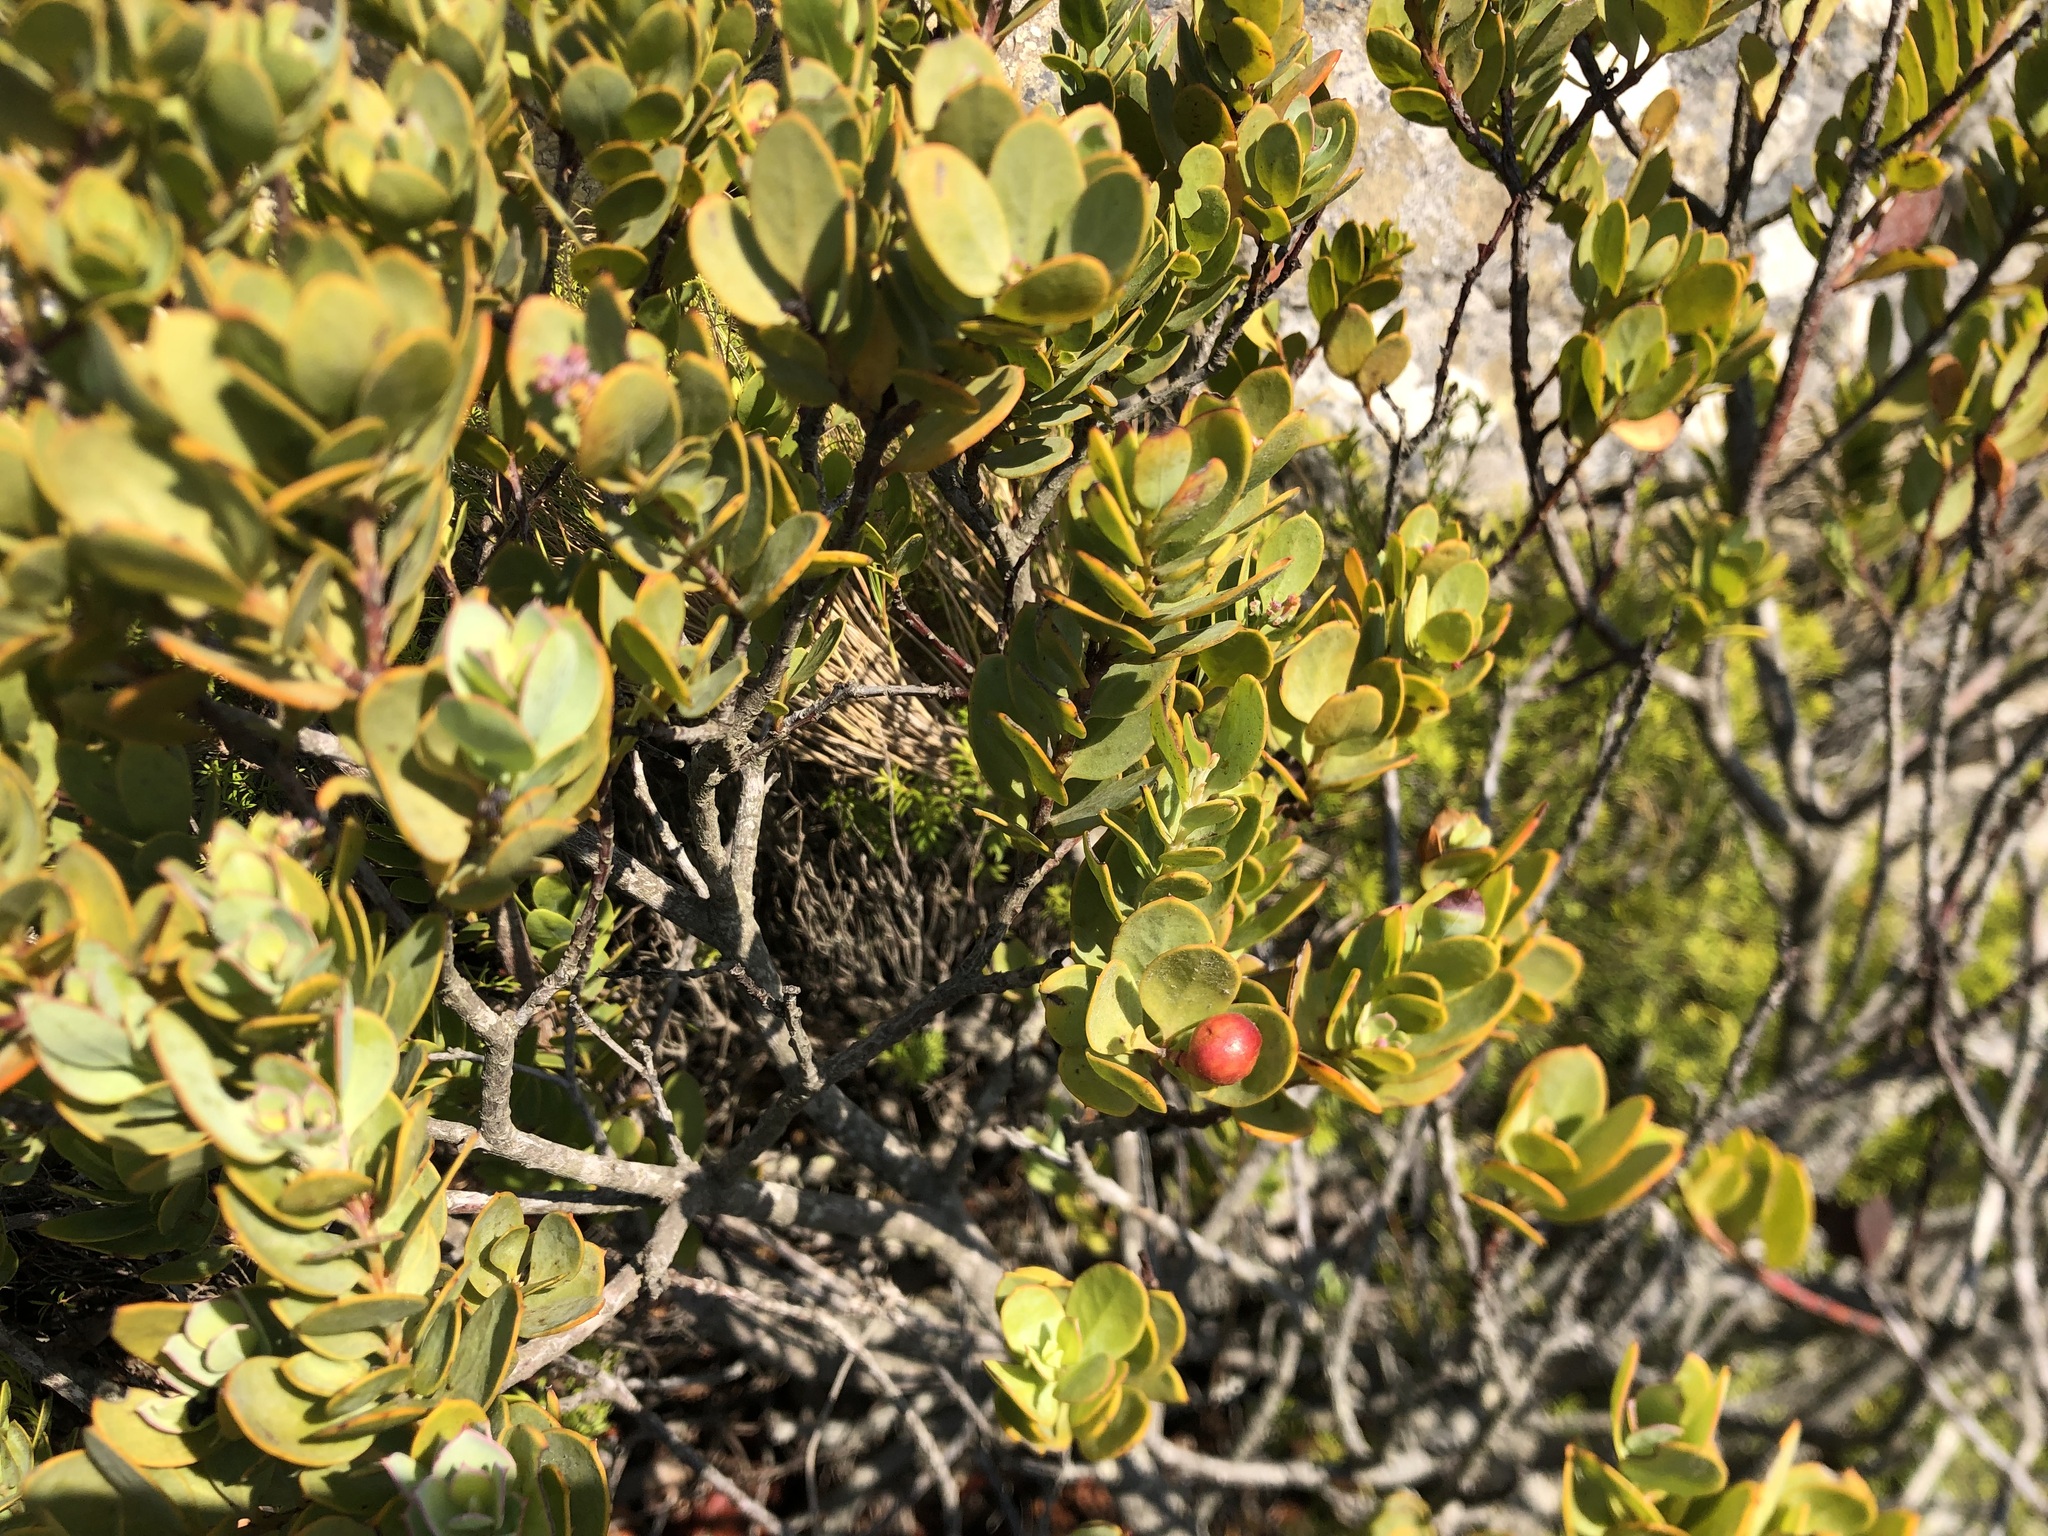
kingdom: Plantae
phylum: Tracheophyta
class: Magnoliopsida
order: Santalales
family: Santalaceae
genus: Osyris
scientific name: Osyris compressa
